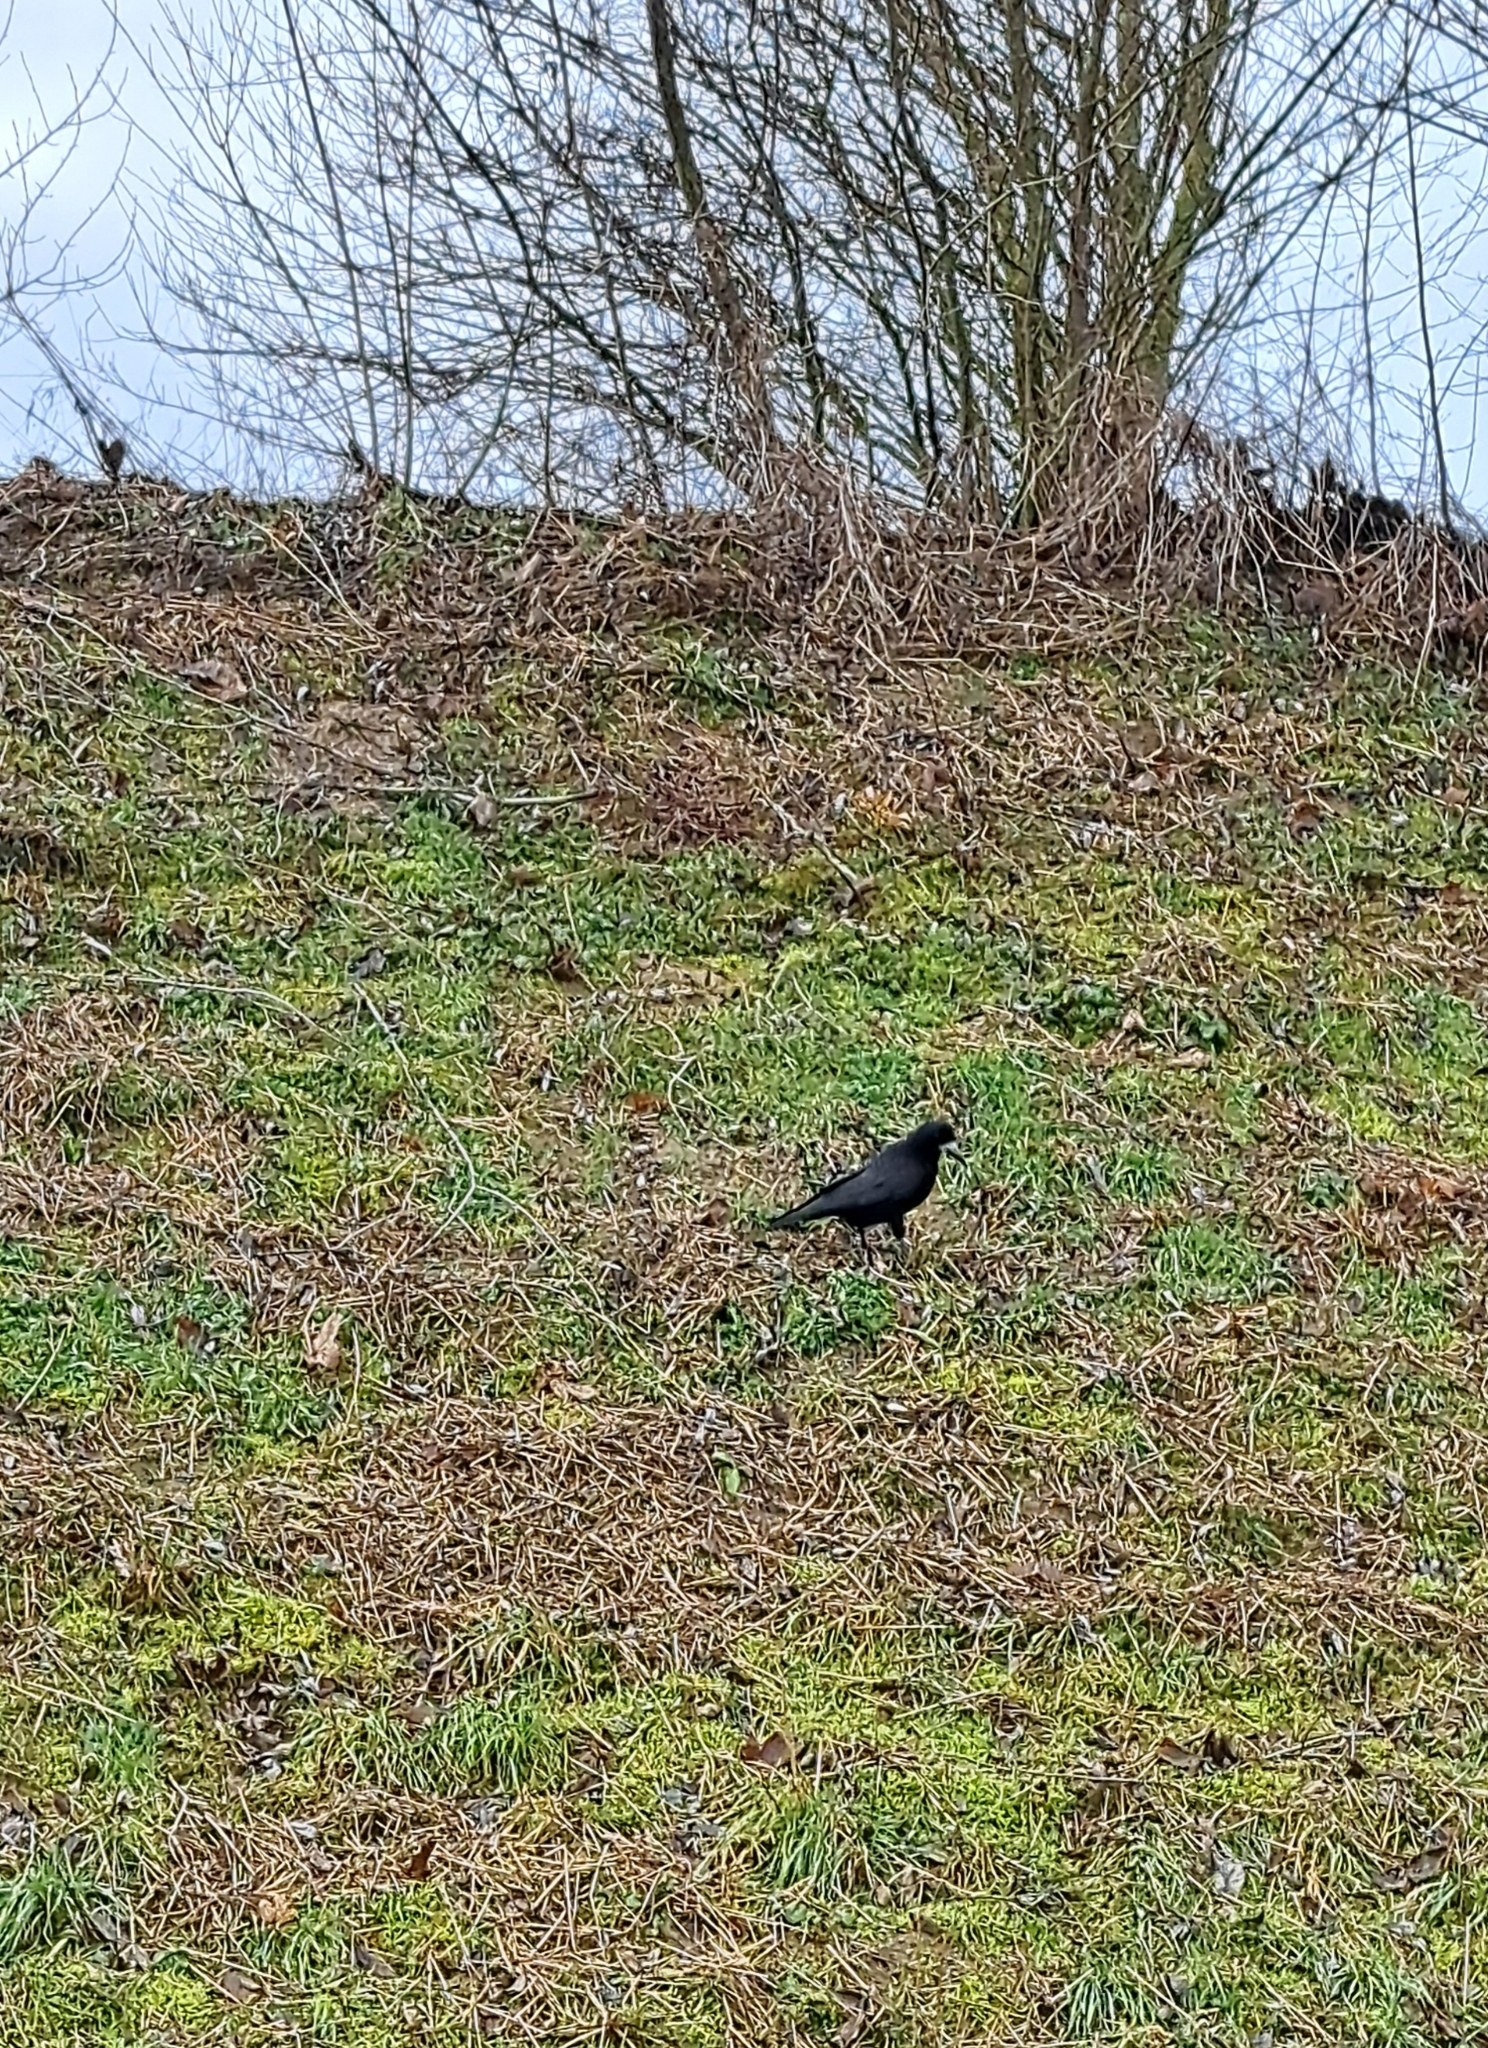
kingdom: Animalia
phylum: Chordata
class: Aves
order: Passeriformes
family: Corvidae
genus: Corvus
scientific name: Corvus frugilegus
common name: Rook
